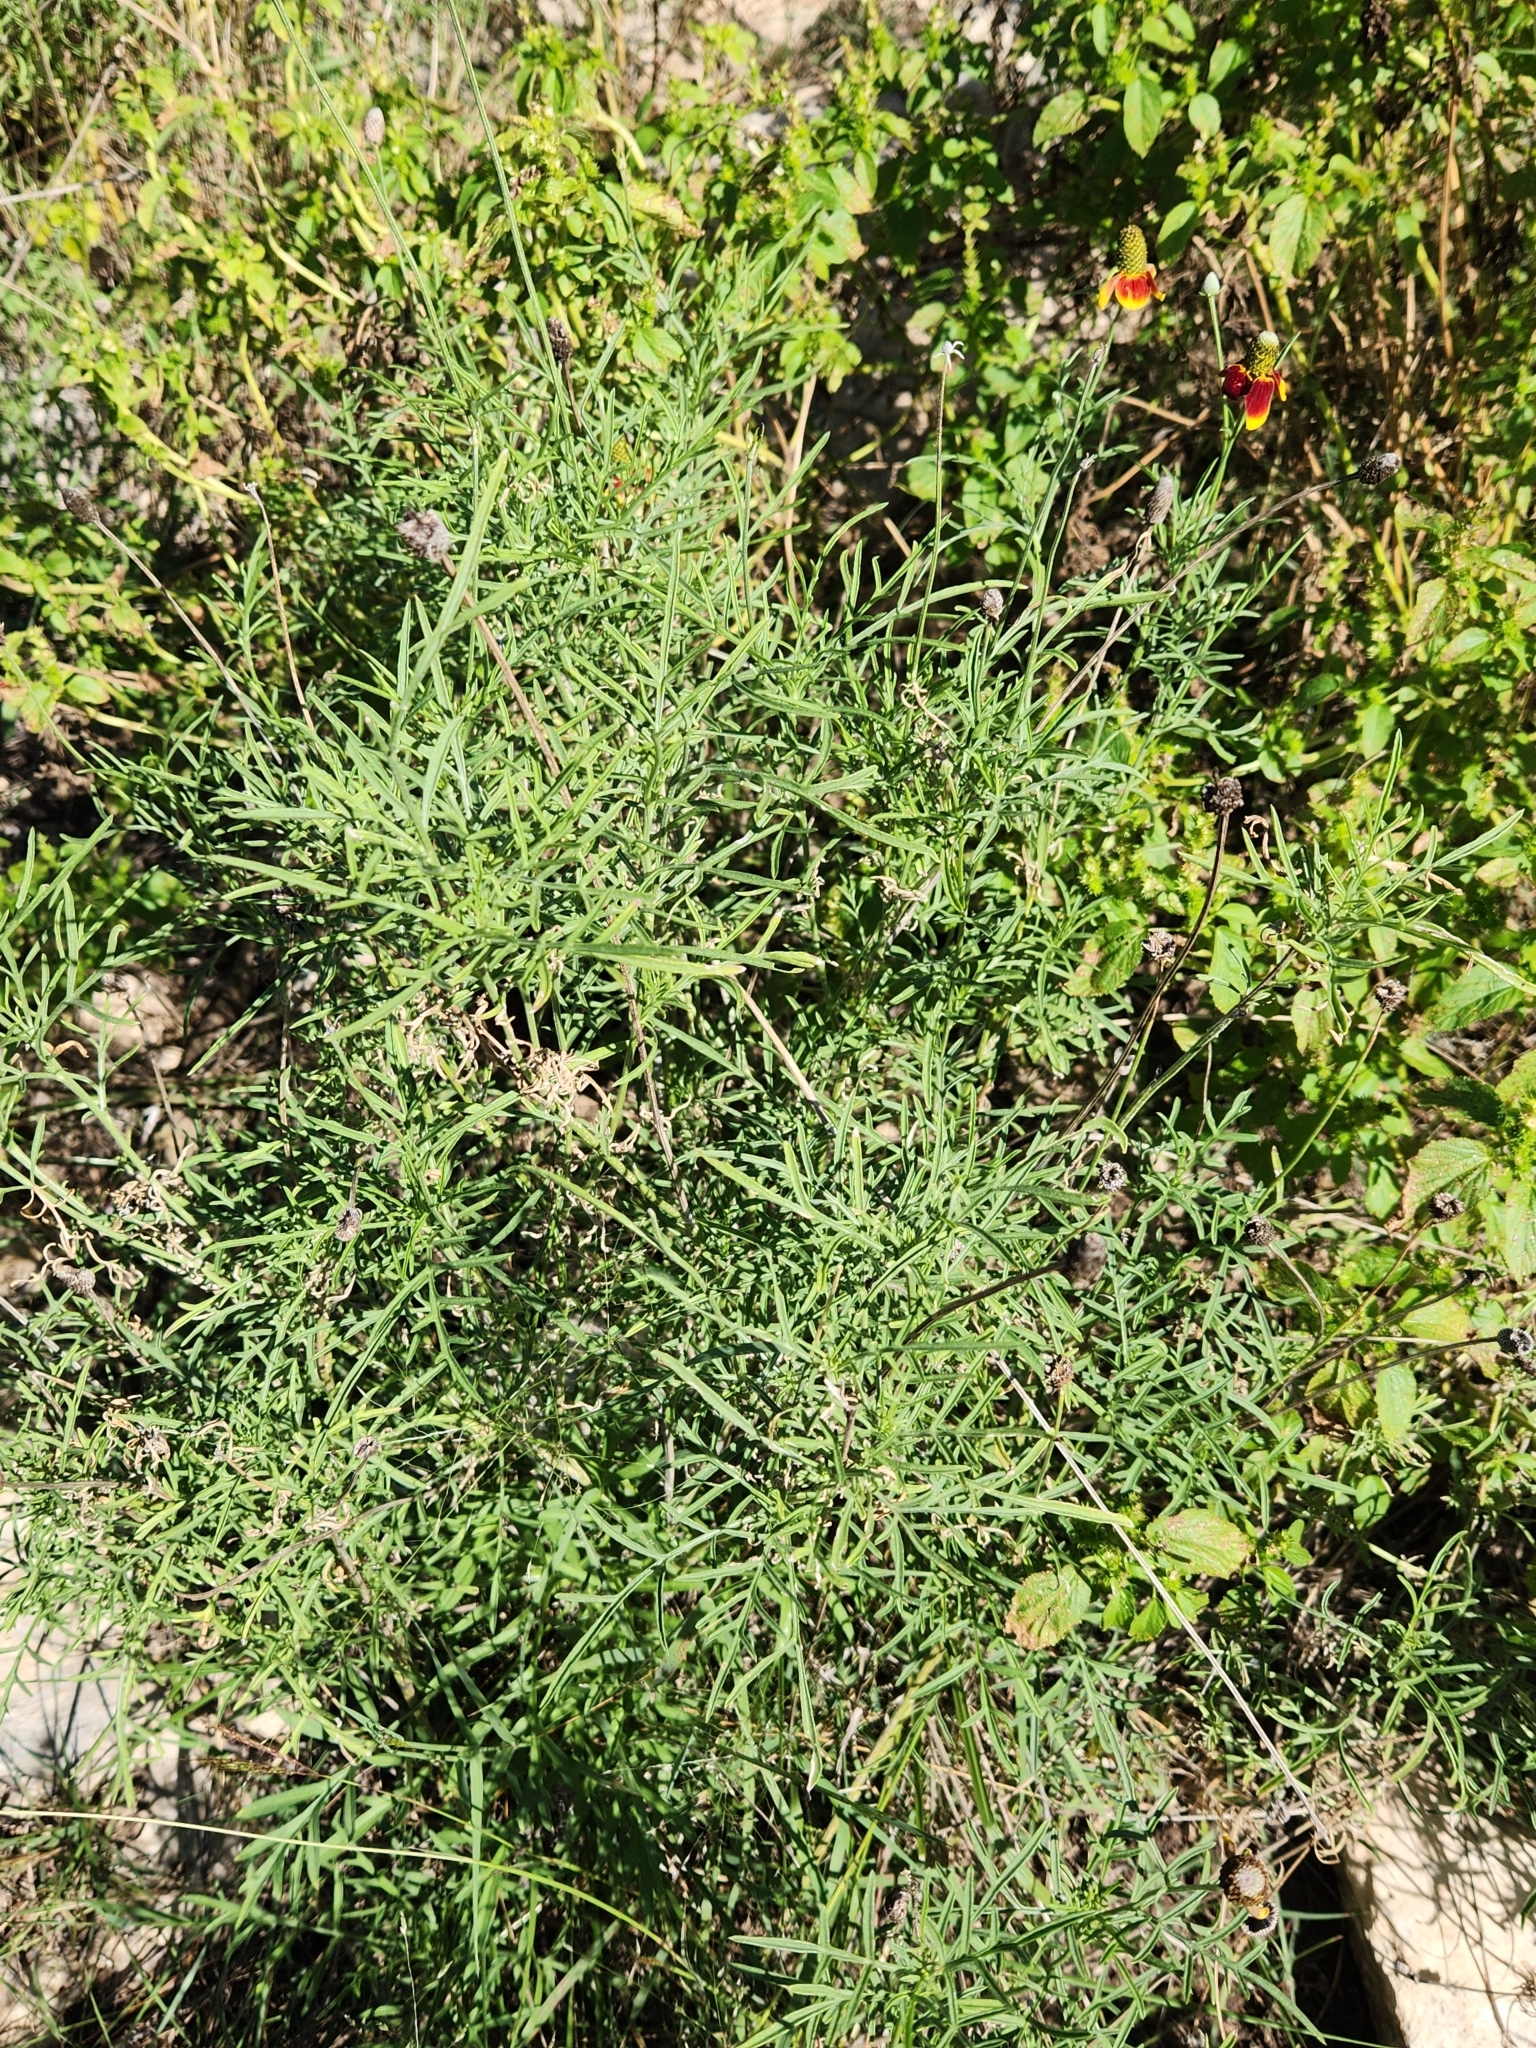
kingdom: Plantae
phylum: Tracheophyta
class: Magnoliopsida
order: Asterales
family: Asteraceae
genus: Ratibida
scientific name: Ratibida columnifera
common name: Prairie coneflower
